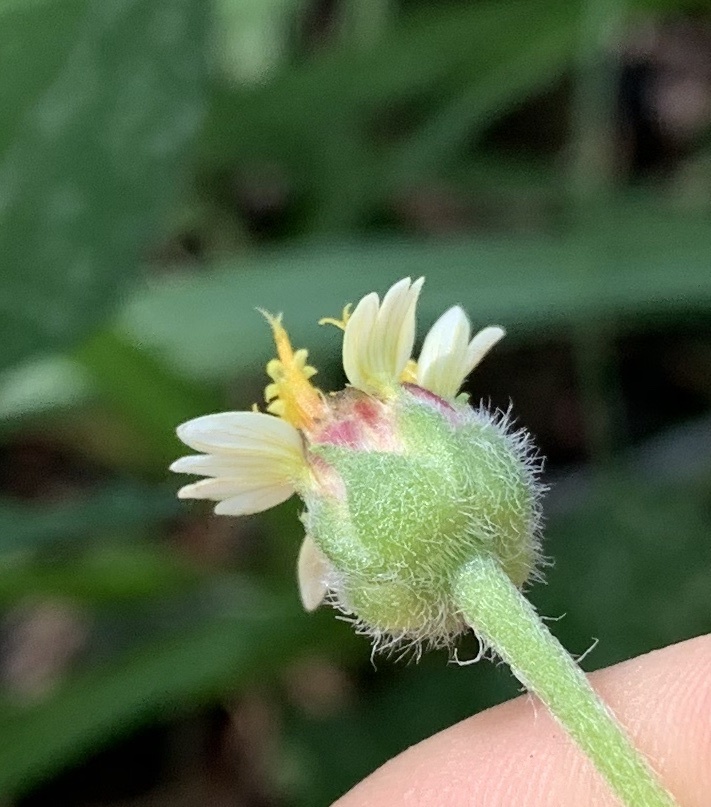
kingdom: Plantae
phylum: Tracheophyta
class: Magnoliopsida
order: Asterales
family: Asteraceae
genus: Tridax
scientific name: Tridax procumbens
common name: Coatbuttons
